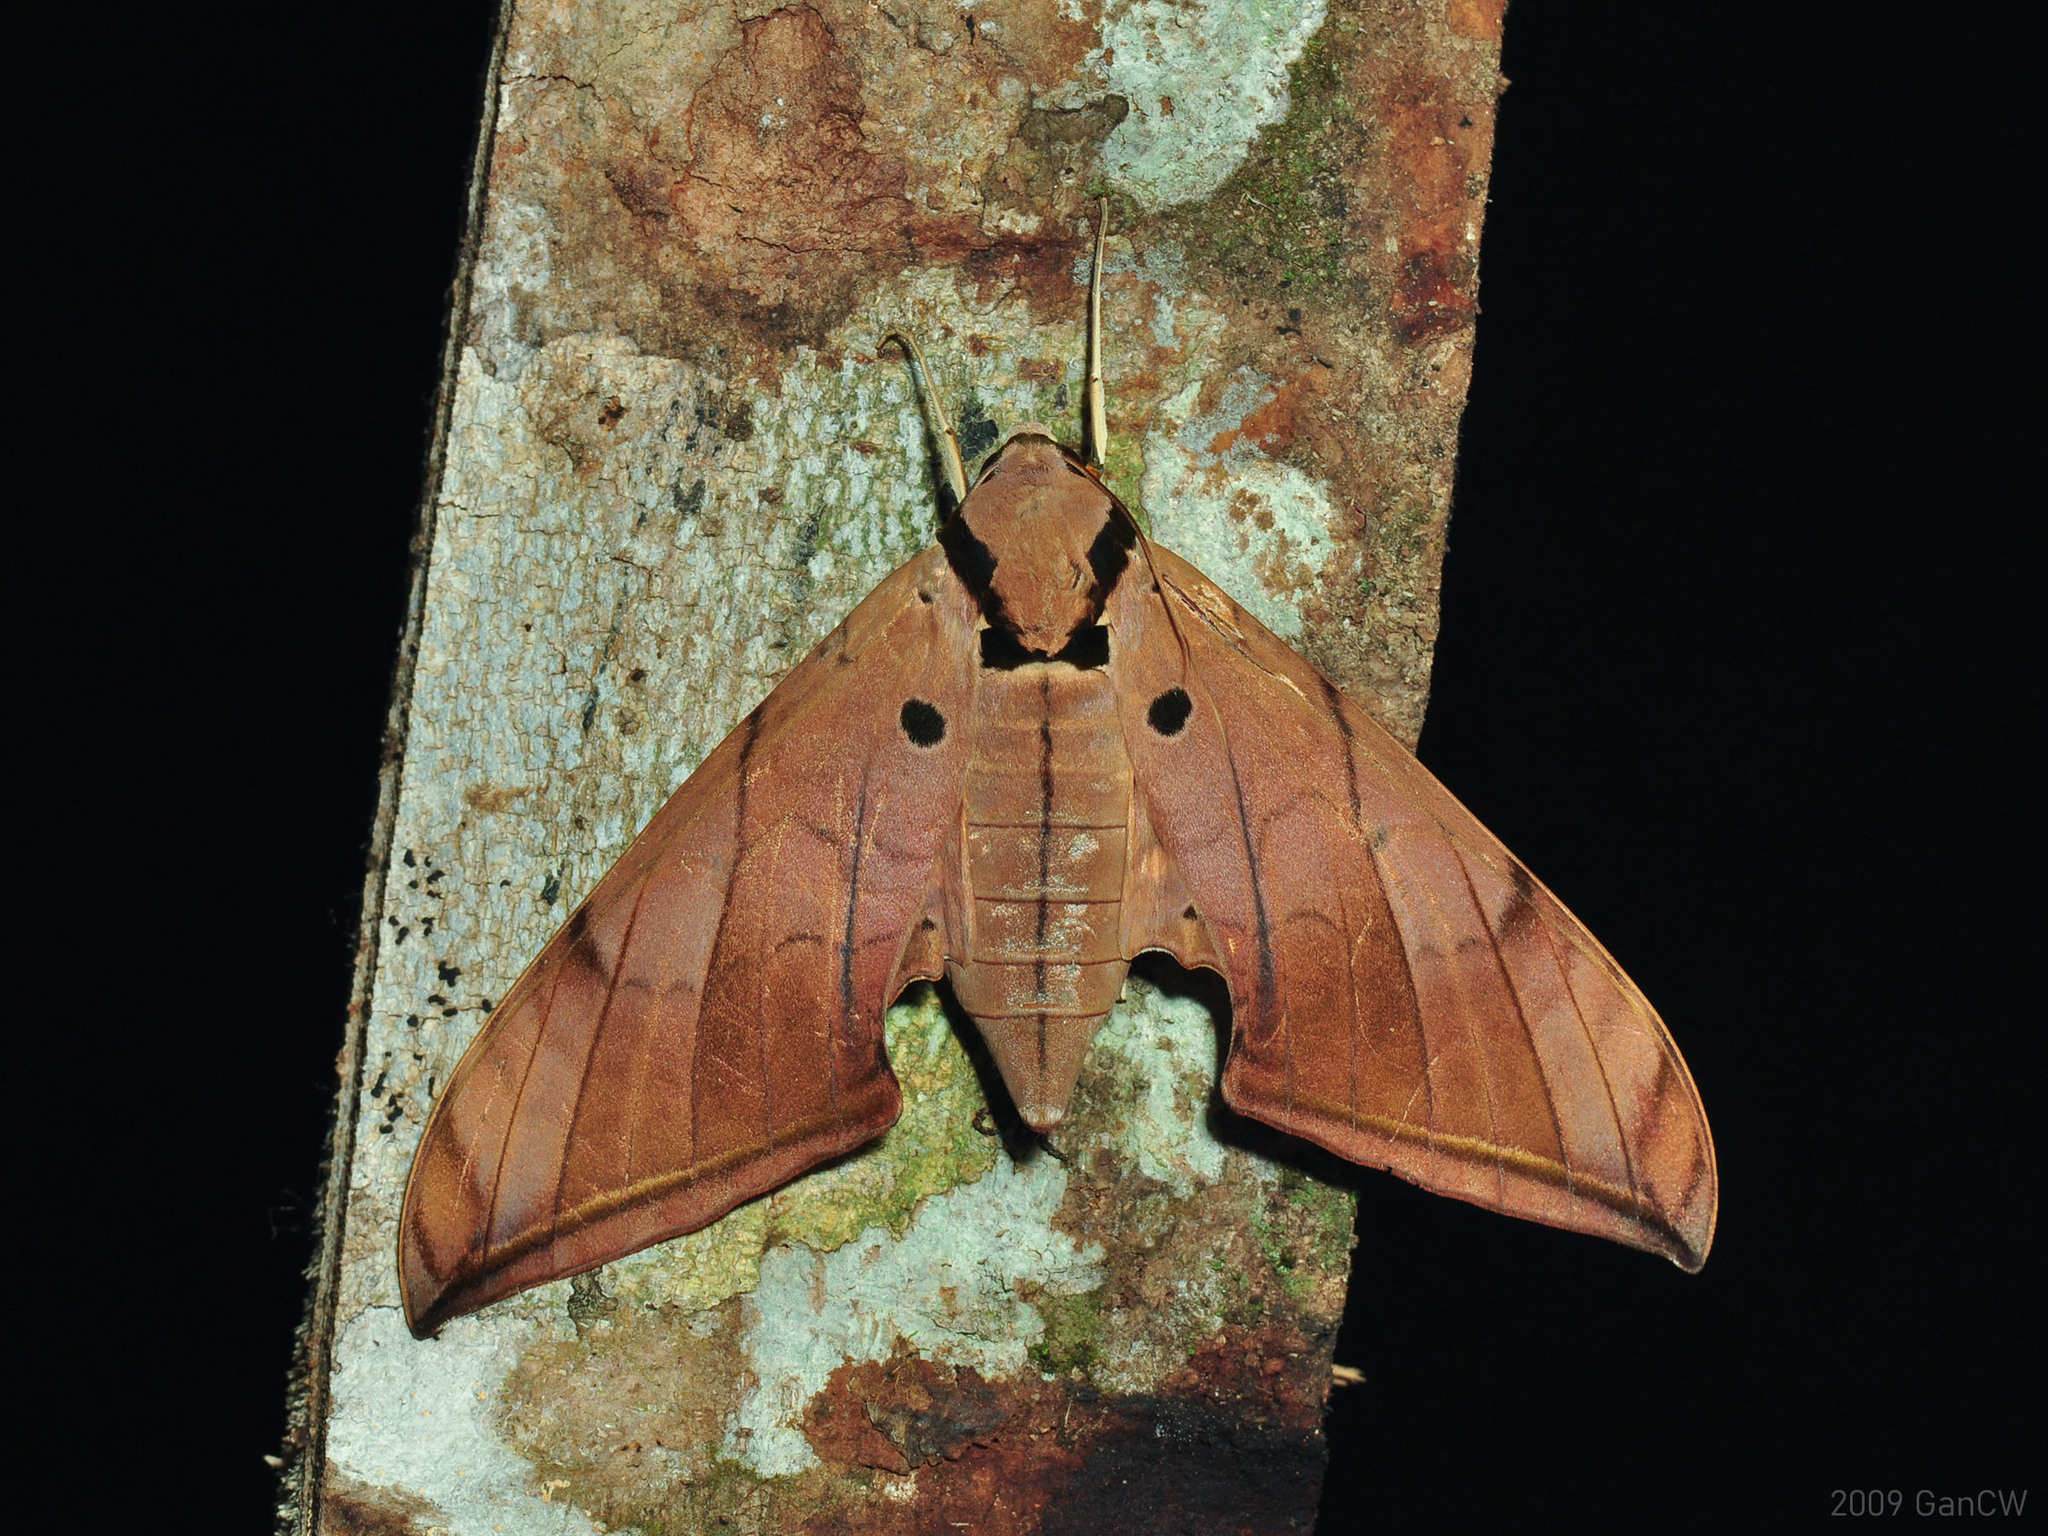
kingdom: Animalia
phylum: Arthropoda
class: Insecta
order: Lepidoptera
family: Sphingidae
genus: Ambulyx
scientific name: Ambulyx pryeri
